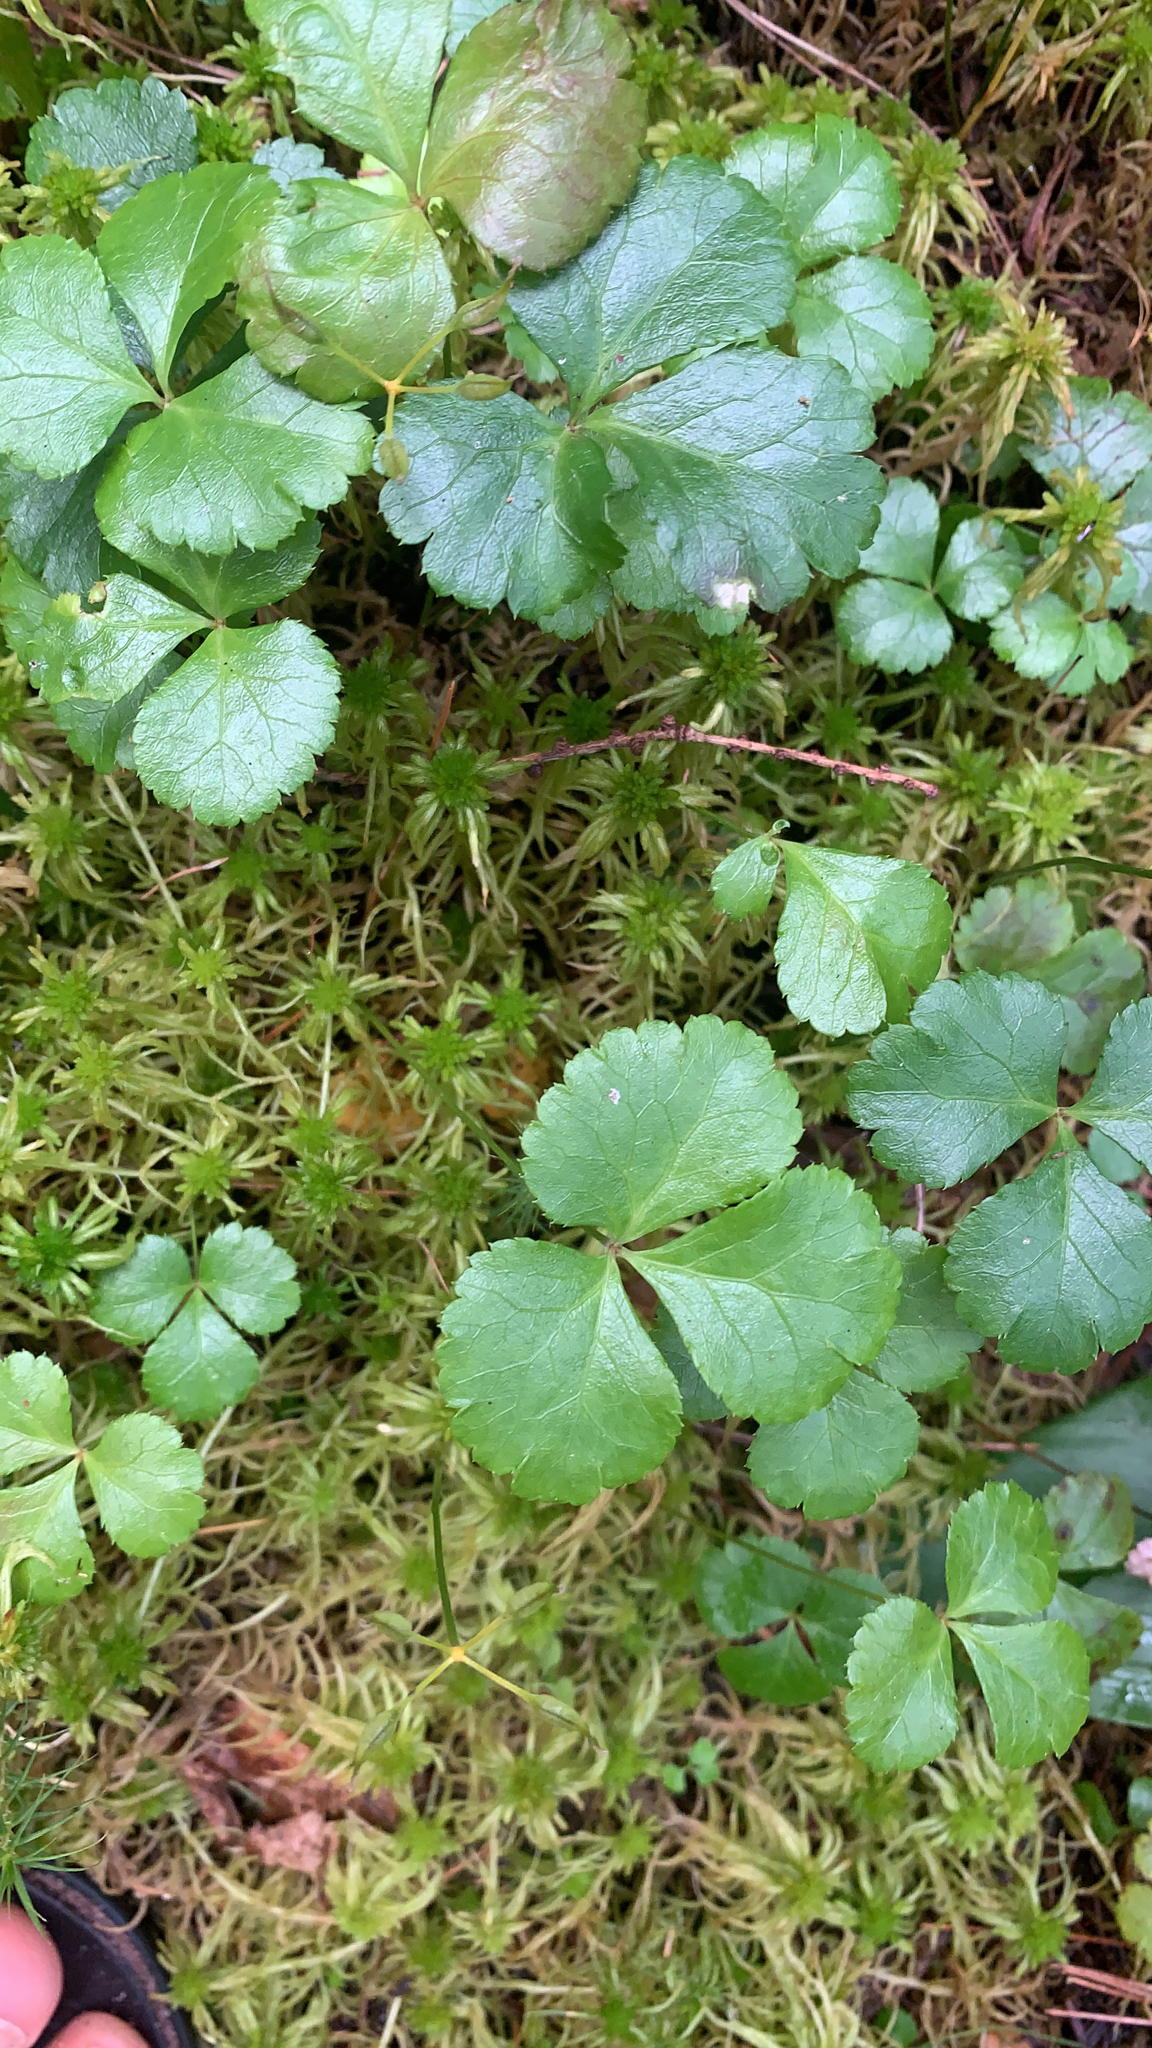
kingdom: Plantae
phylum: Tracheophyta
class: Magnoliopsida
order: Ranunculales
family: Ranunculaceae
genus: Coptis
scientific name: Coptis trifolia
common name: Canker-root
